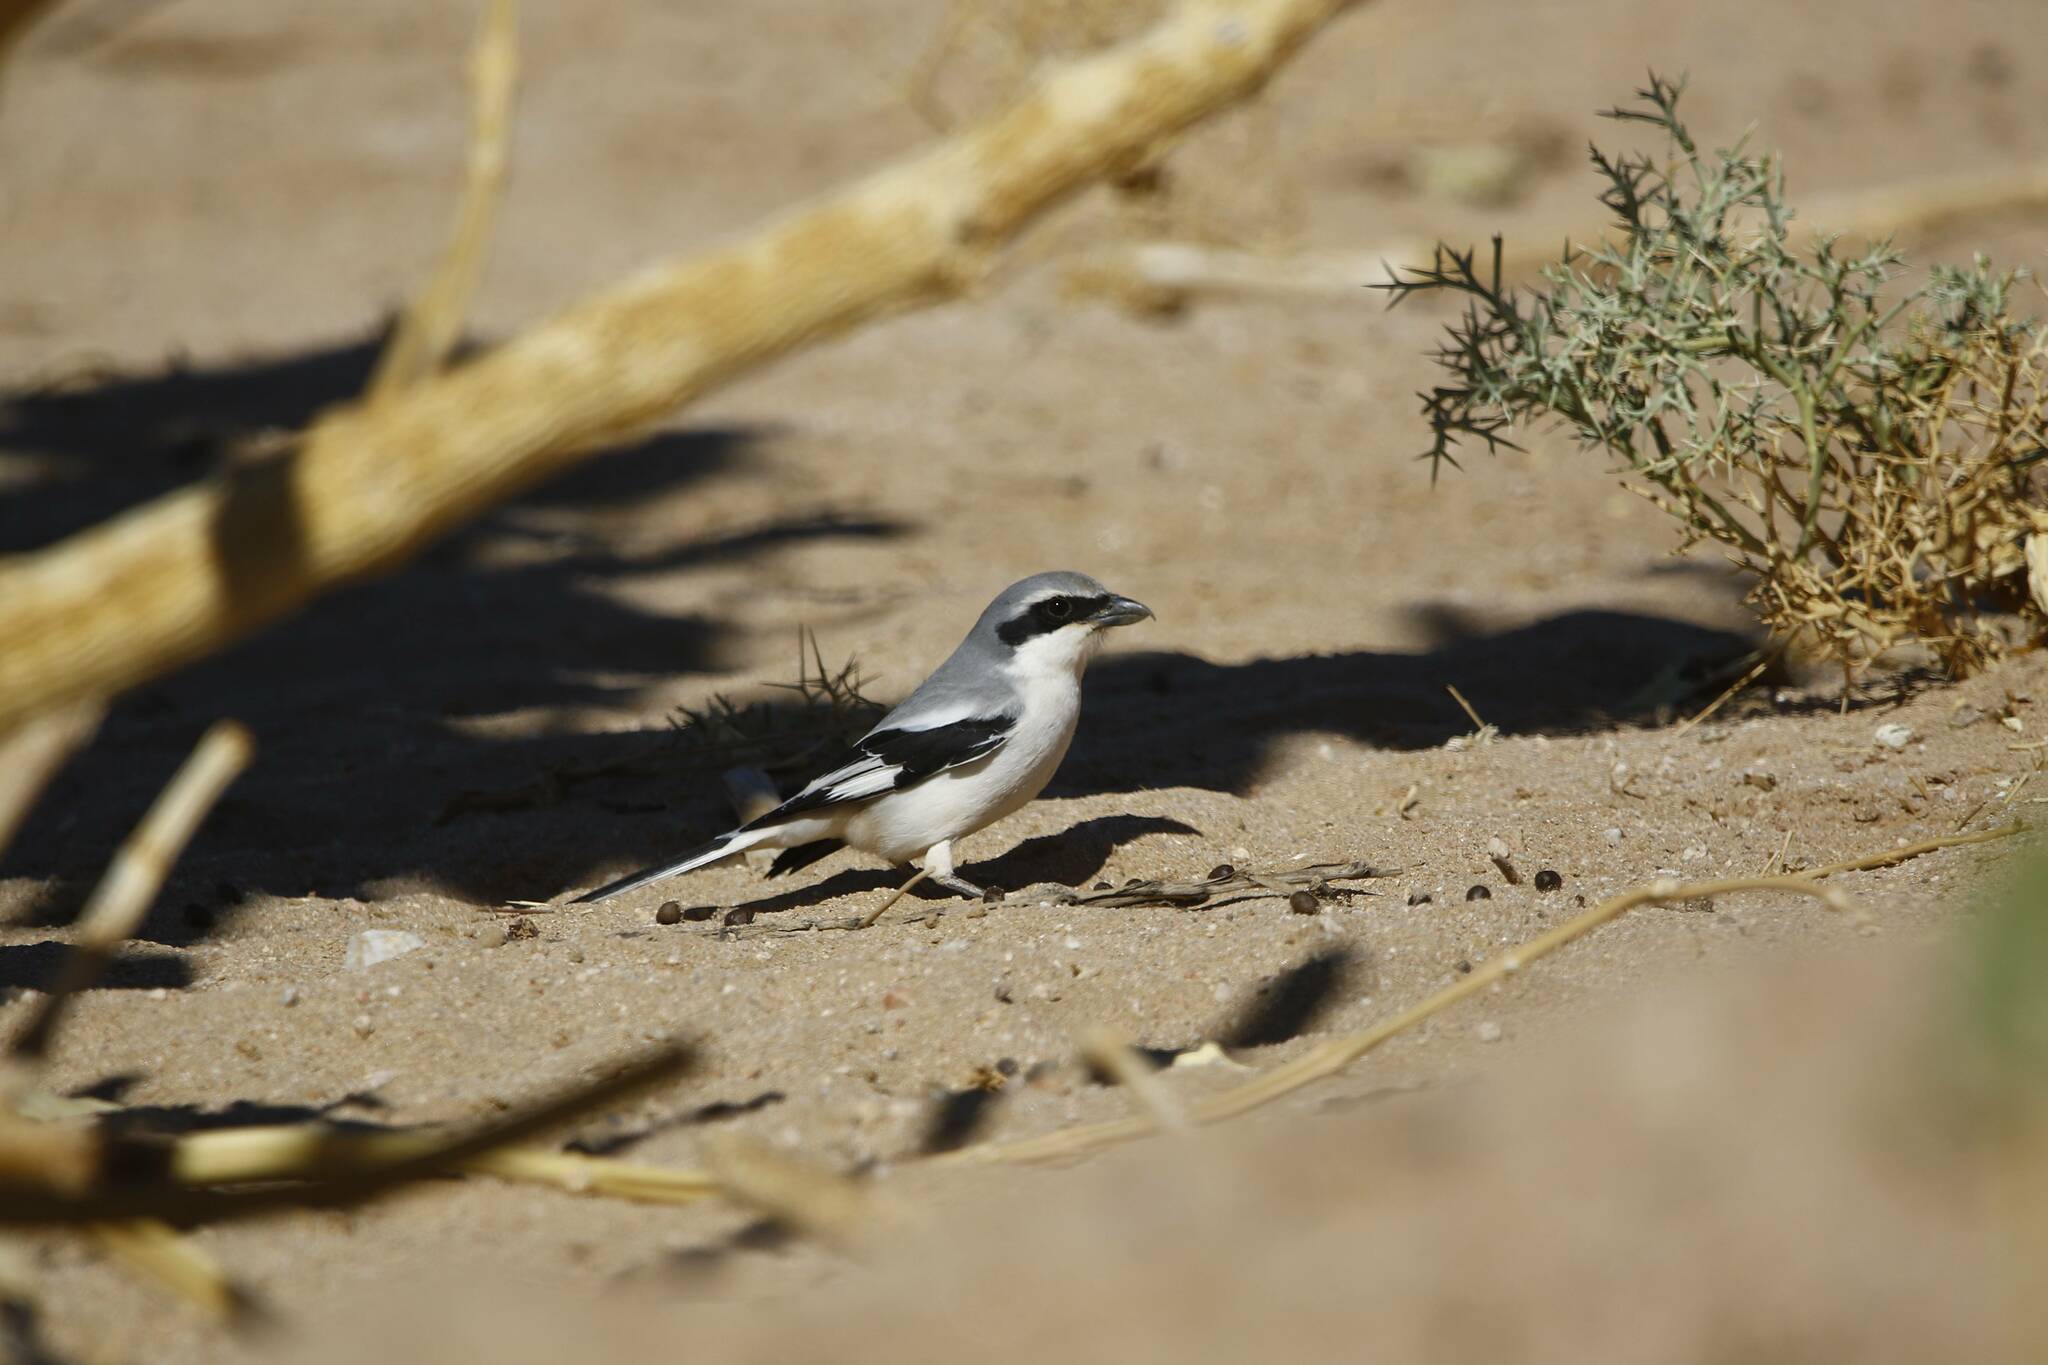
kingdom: Animalia
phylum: Chordata
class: Aves
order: Passeriformes
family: Laniidae
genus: Lanius
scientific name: Lanius excubitor
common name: Great grey shrike
